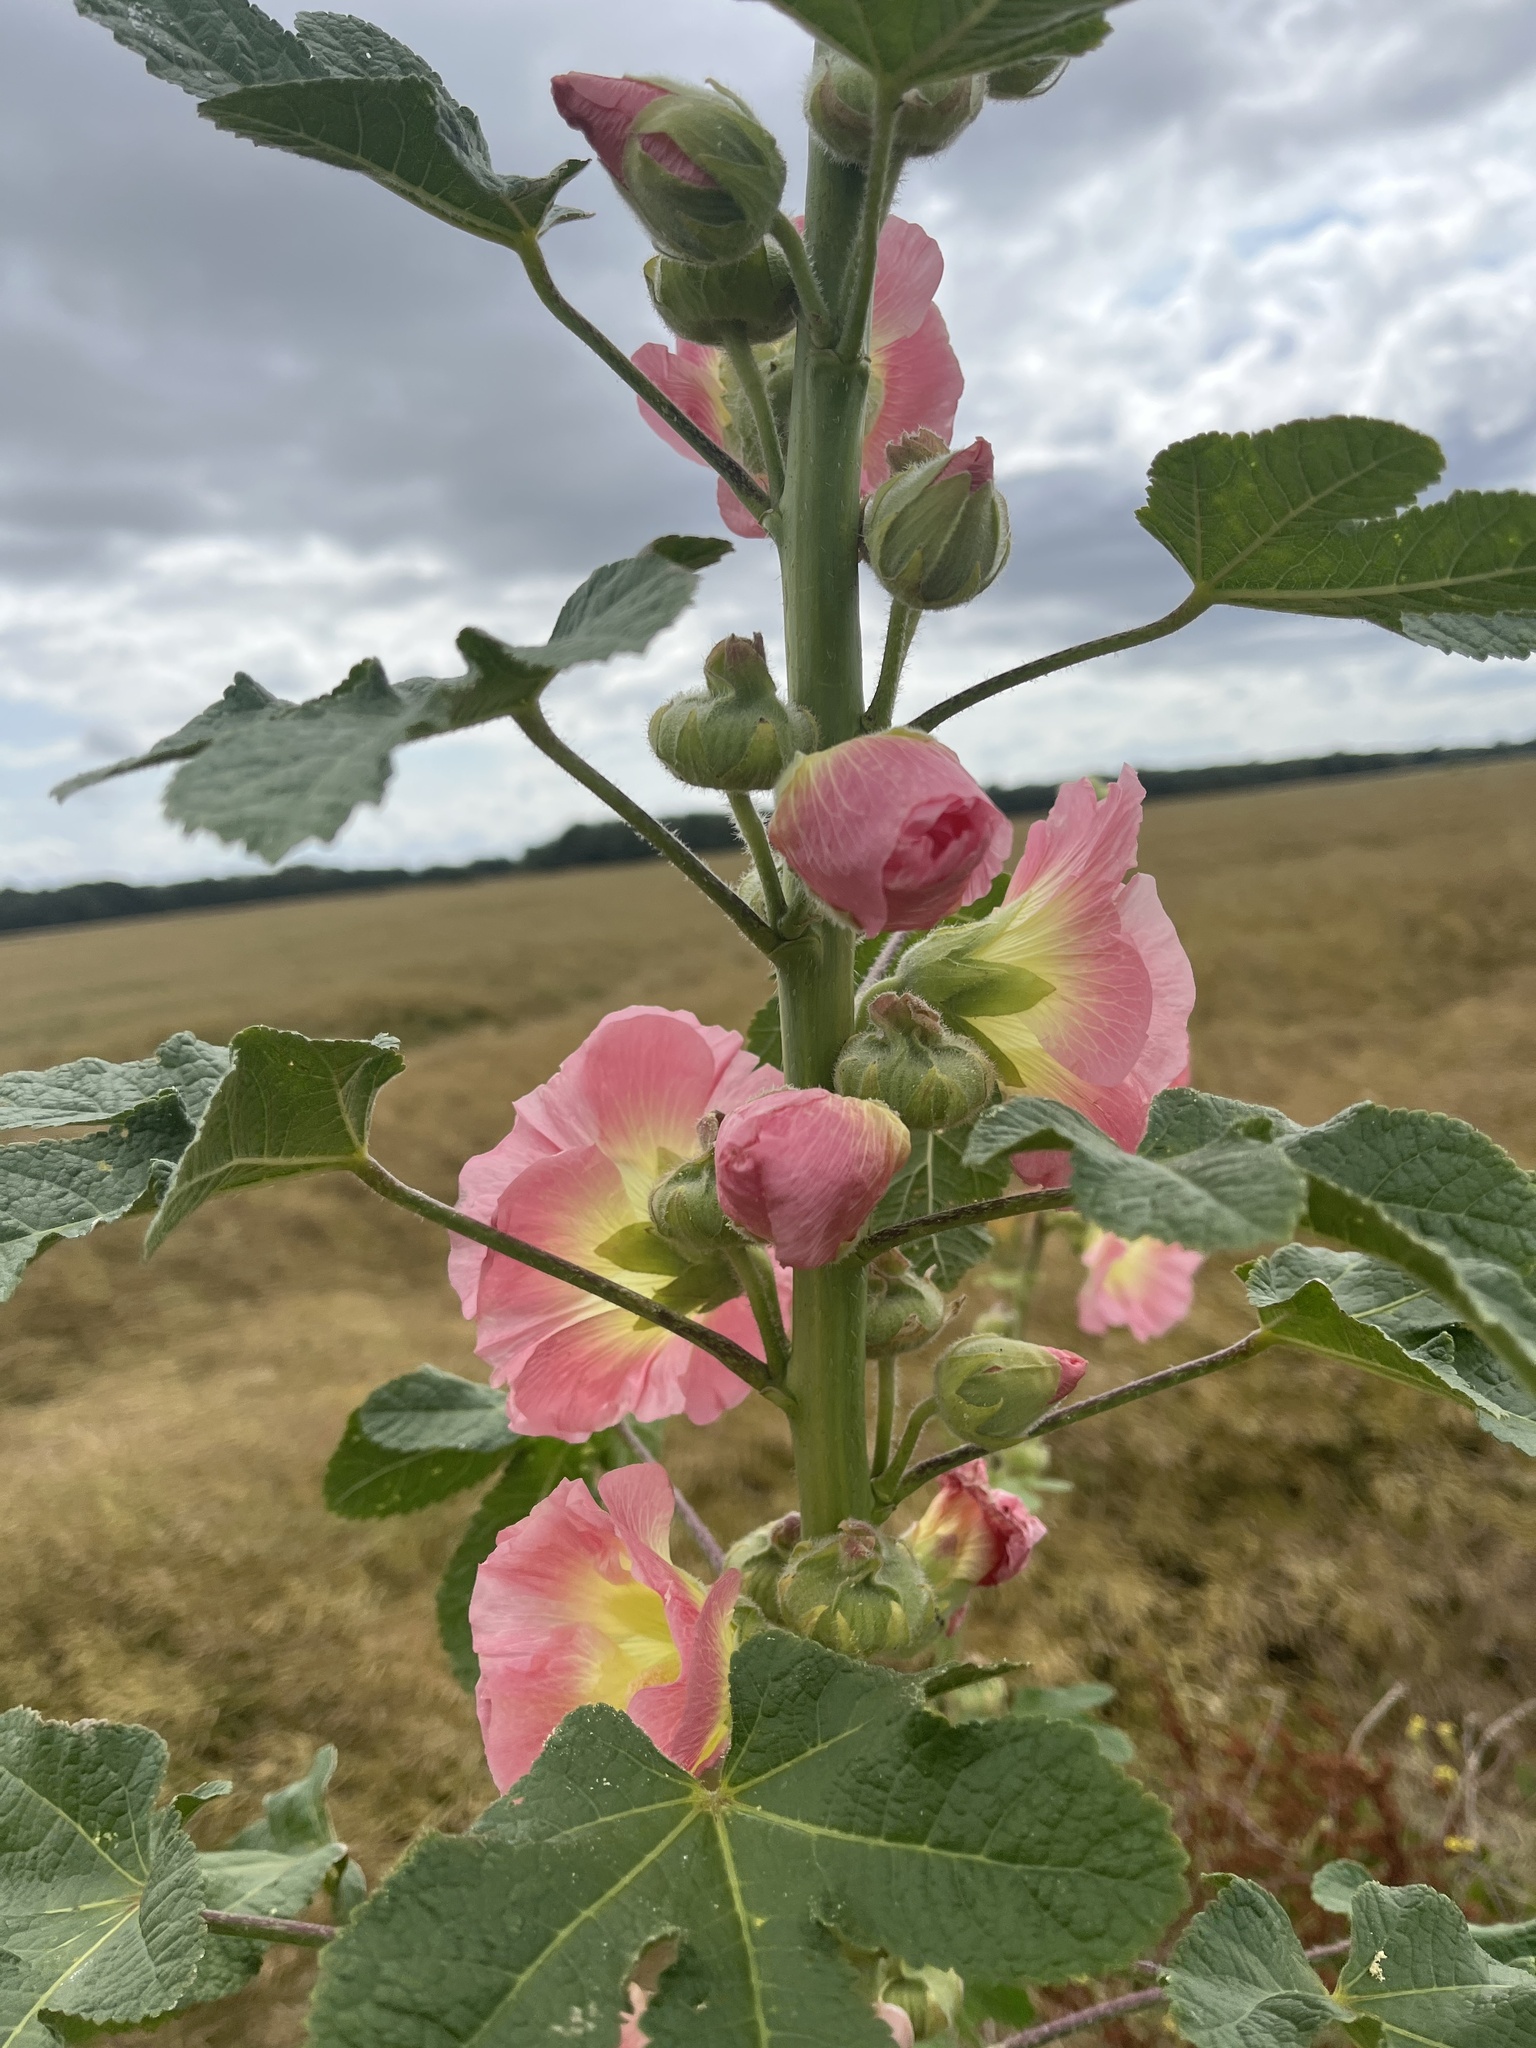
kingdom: Plantae
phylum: Tracheophyta
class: Magnoliopsida
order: Malvales
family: Malvaceae
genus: Alcea
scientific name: Alcea rosea
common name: Hollyhock
